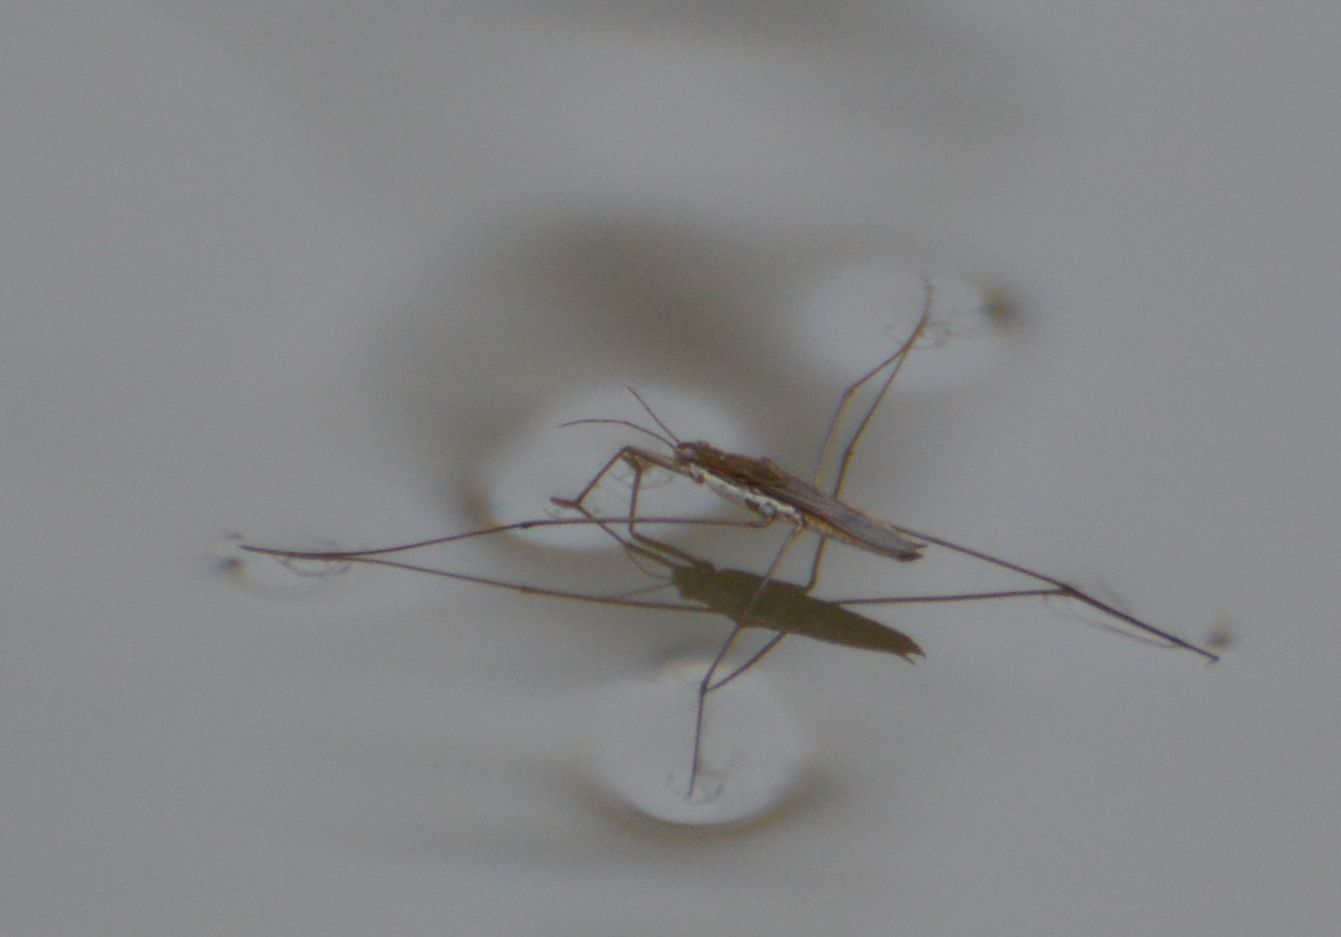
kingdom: Animalia
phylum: Arthropoda
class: Insecta
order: Hemiptera
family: Gerridae
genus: Aquarius
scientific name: Aquarius paludum
